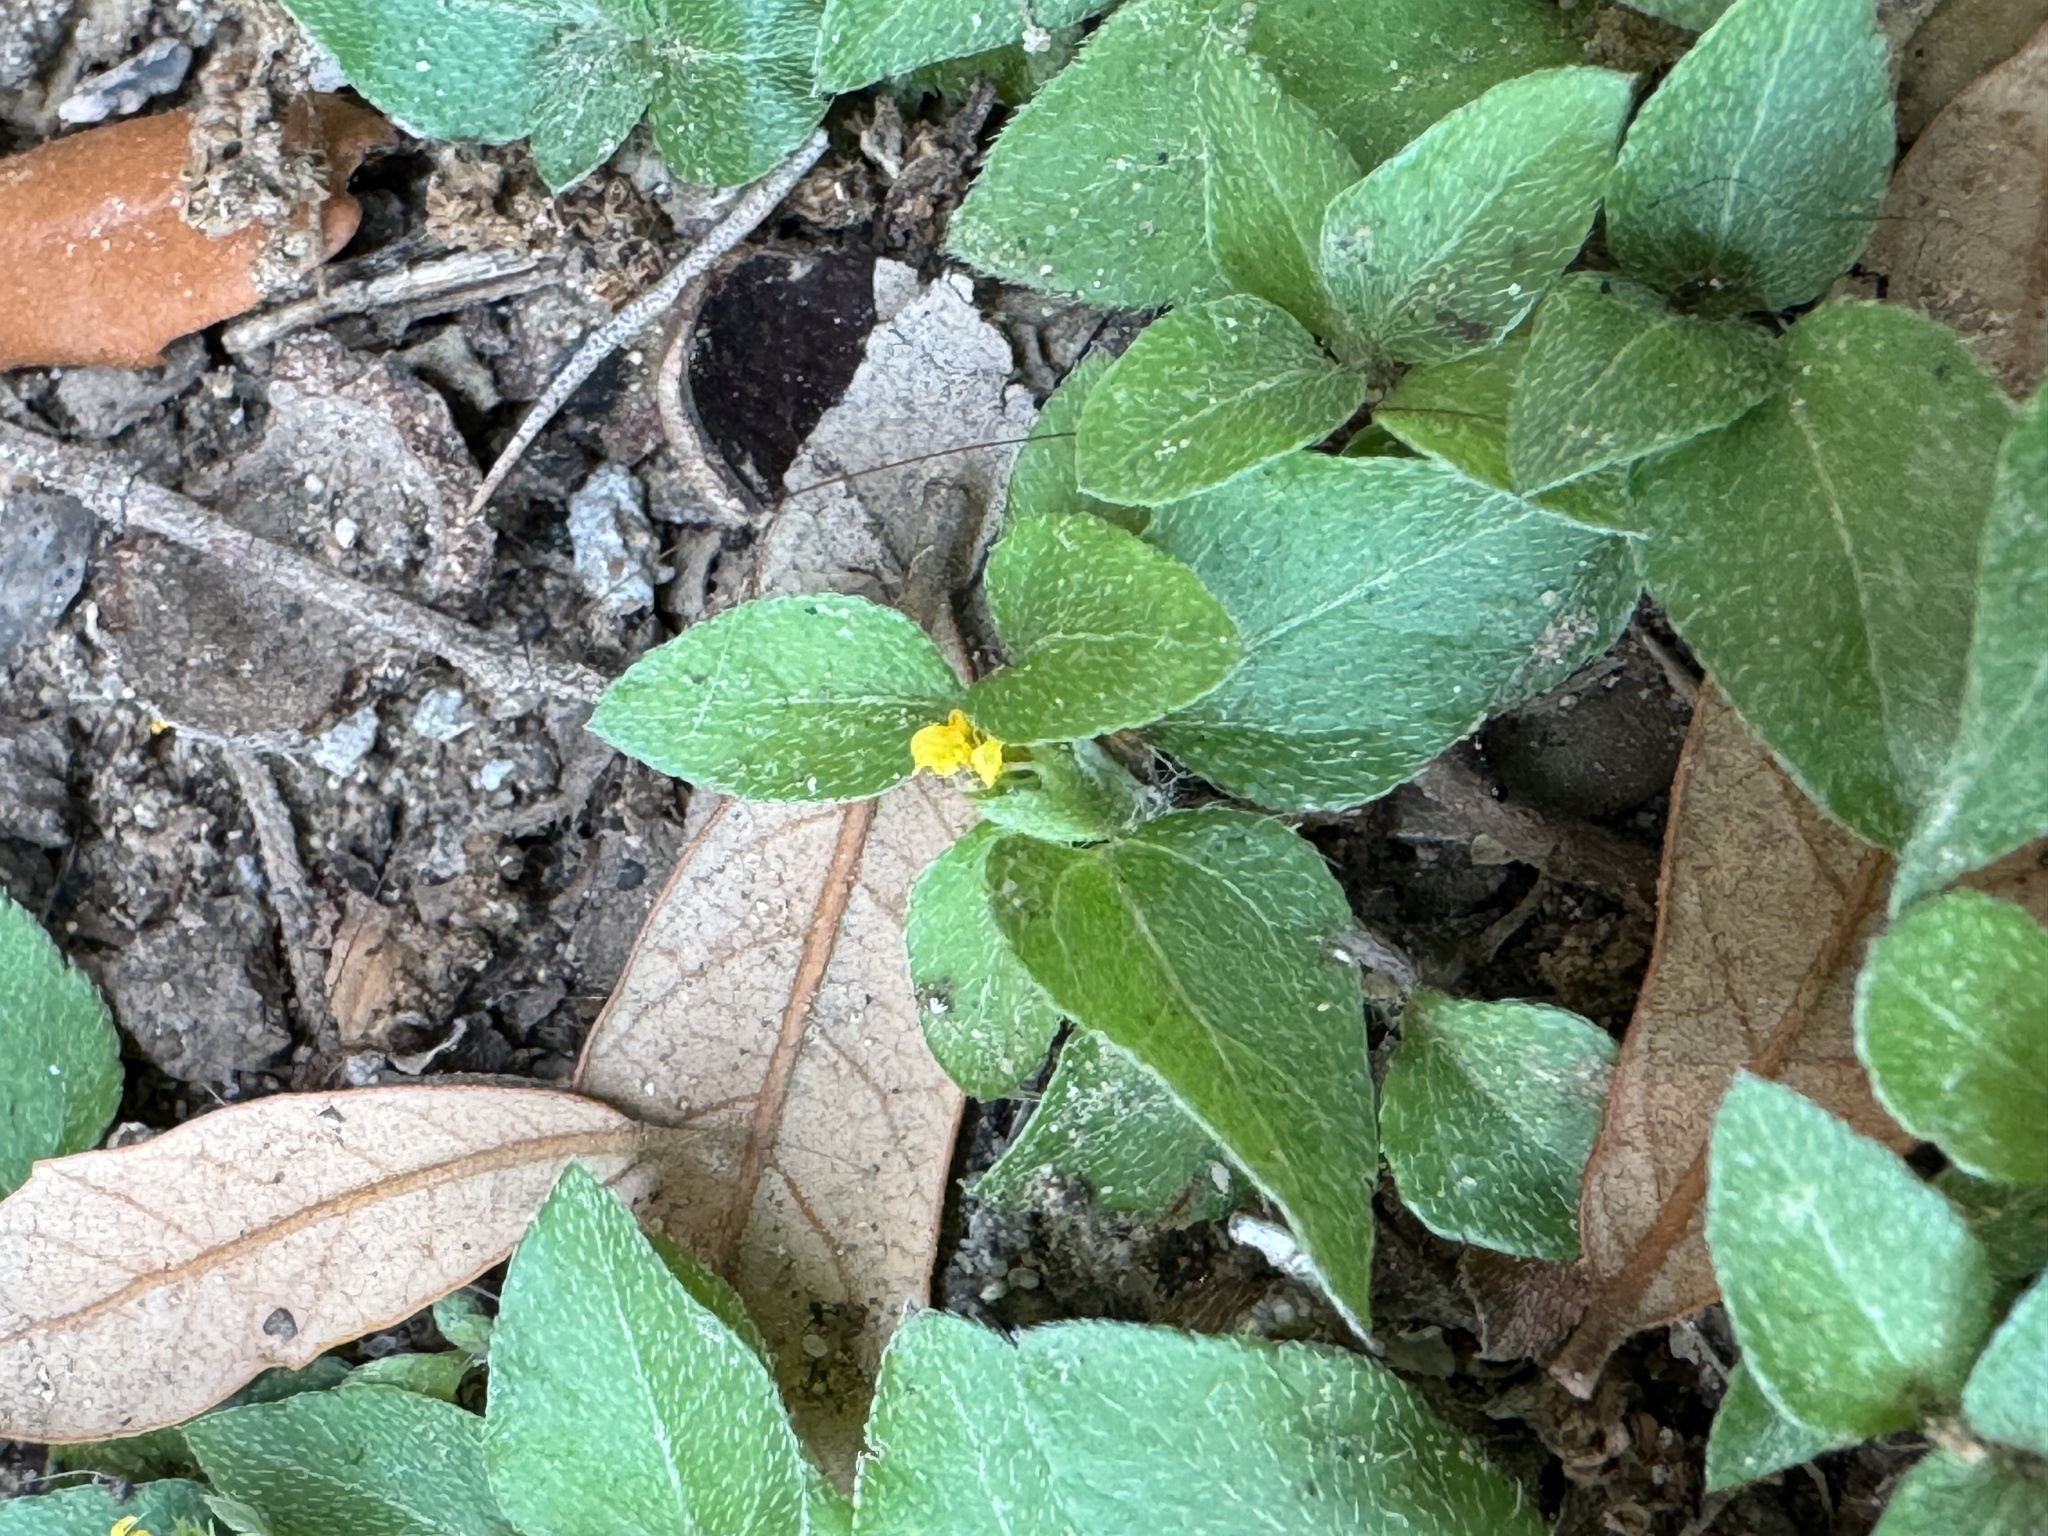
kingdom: Plantae
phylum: Tracheophyta
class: Magnoliopsida
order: Asterales
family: Asteraceae
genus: Calyptocarpus
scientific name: Calyptocarpus vialis
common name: Straggler daisy
